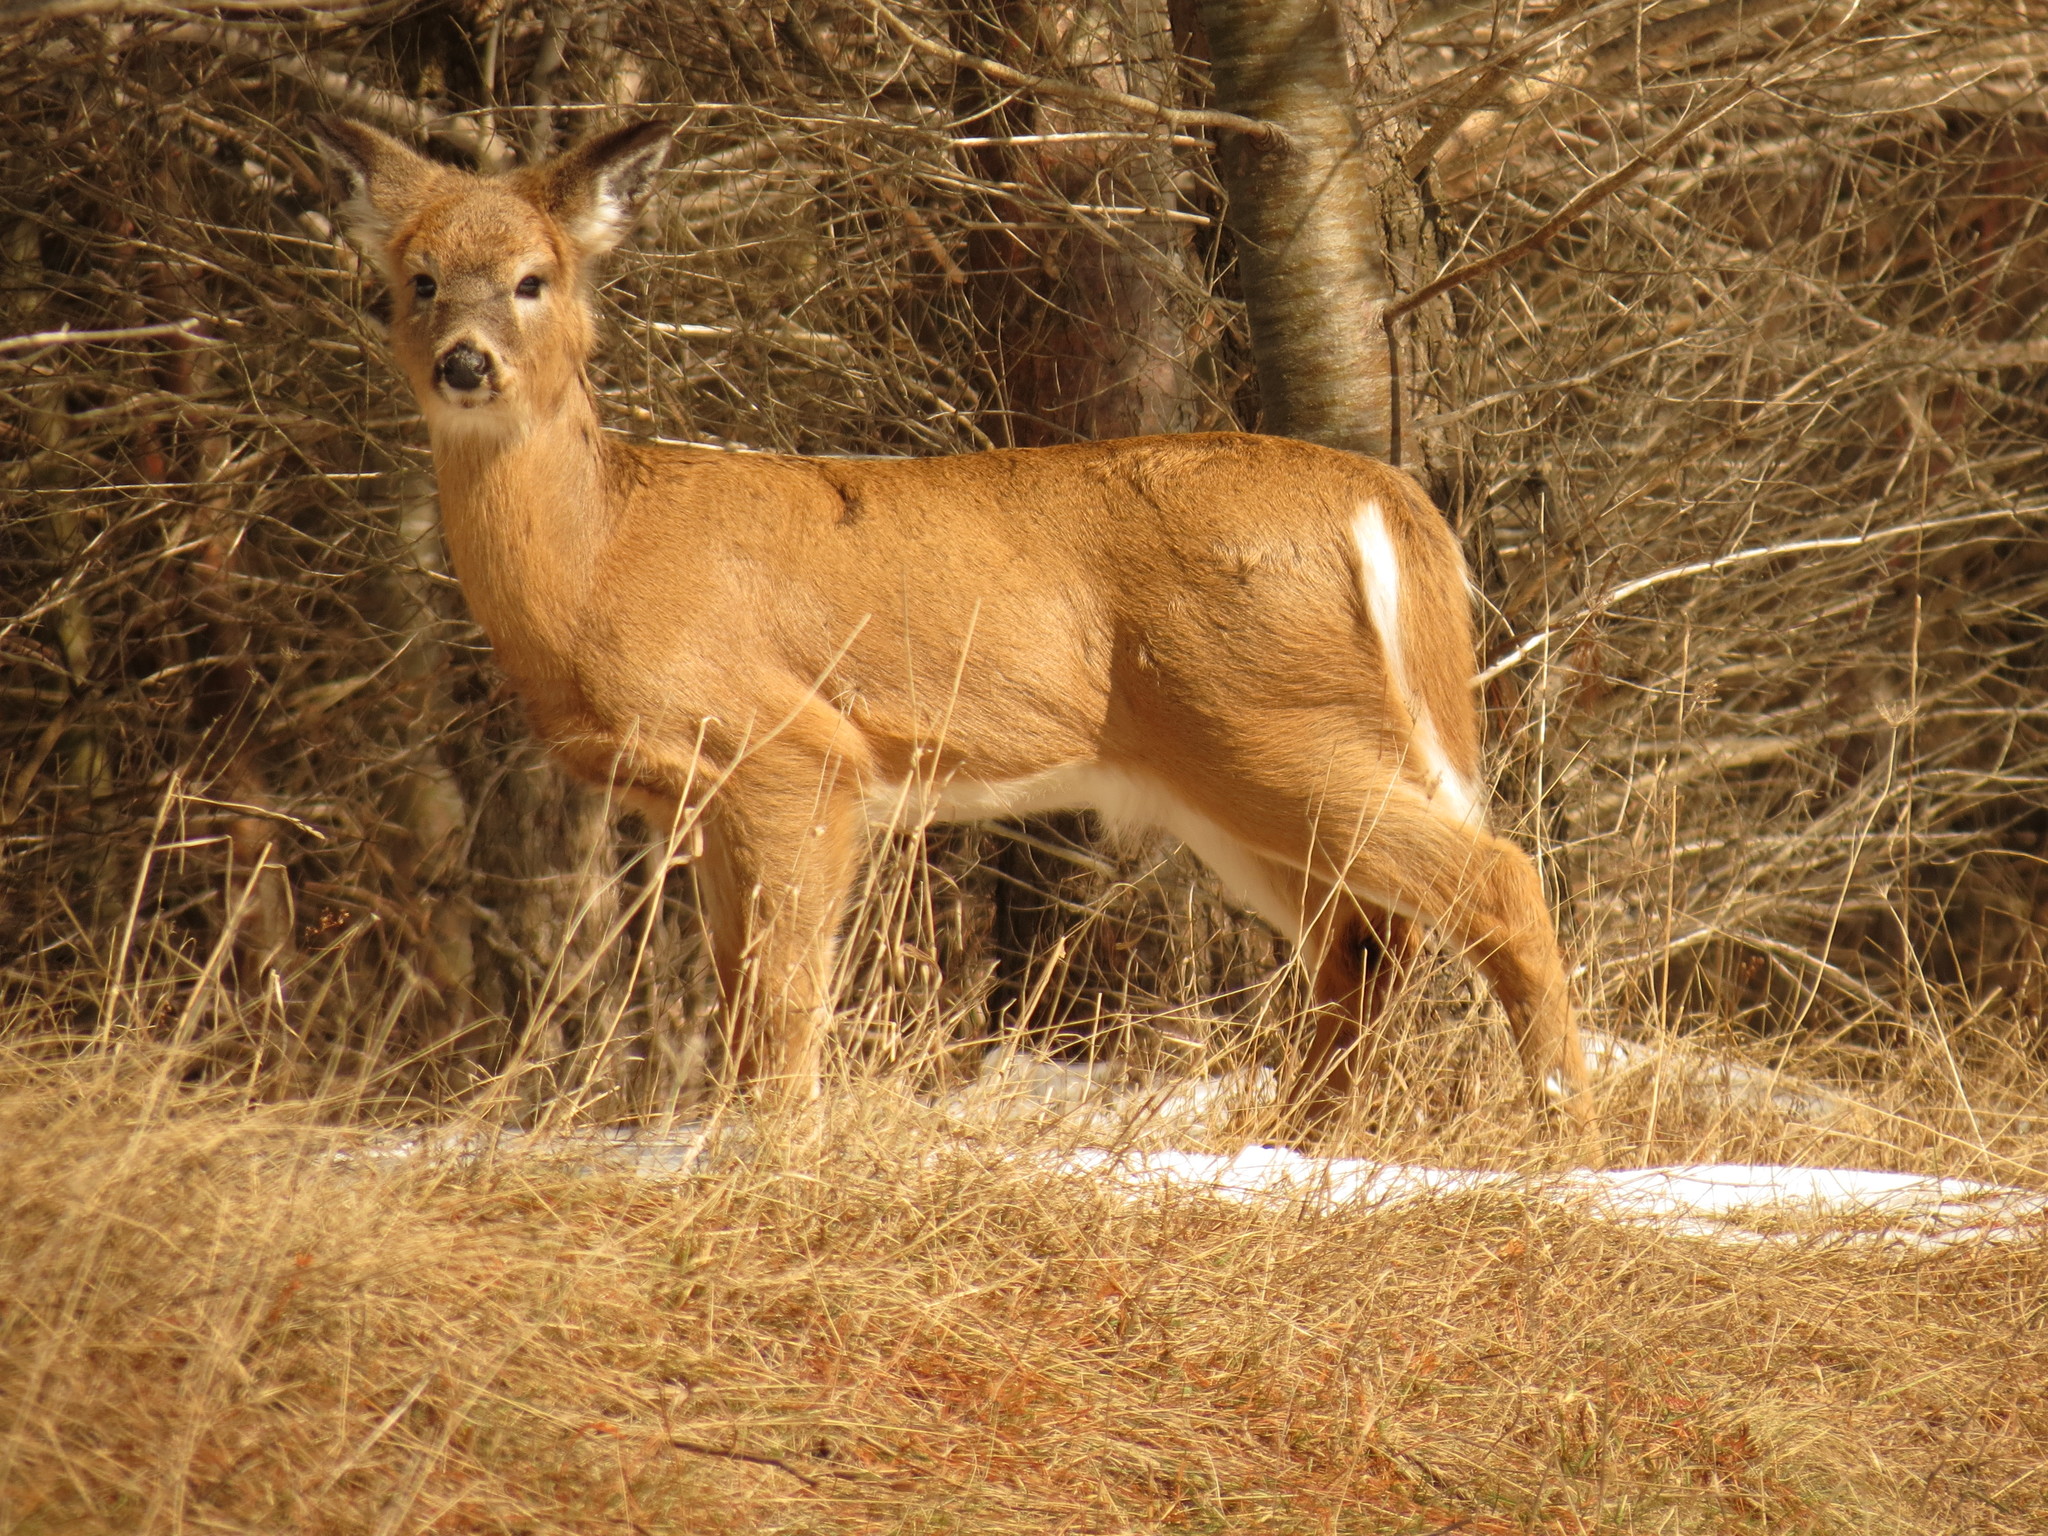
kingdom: Animalia
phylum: Chordata
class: Mammalia
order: Artiodactyla
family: Cervidae
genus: Odocoileus
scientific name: Odocoileus virginianus
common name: White-tailed deer
